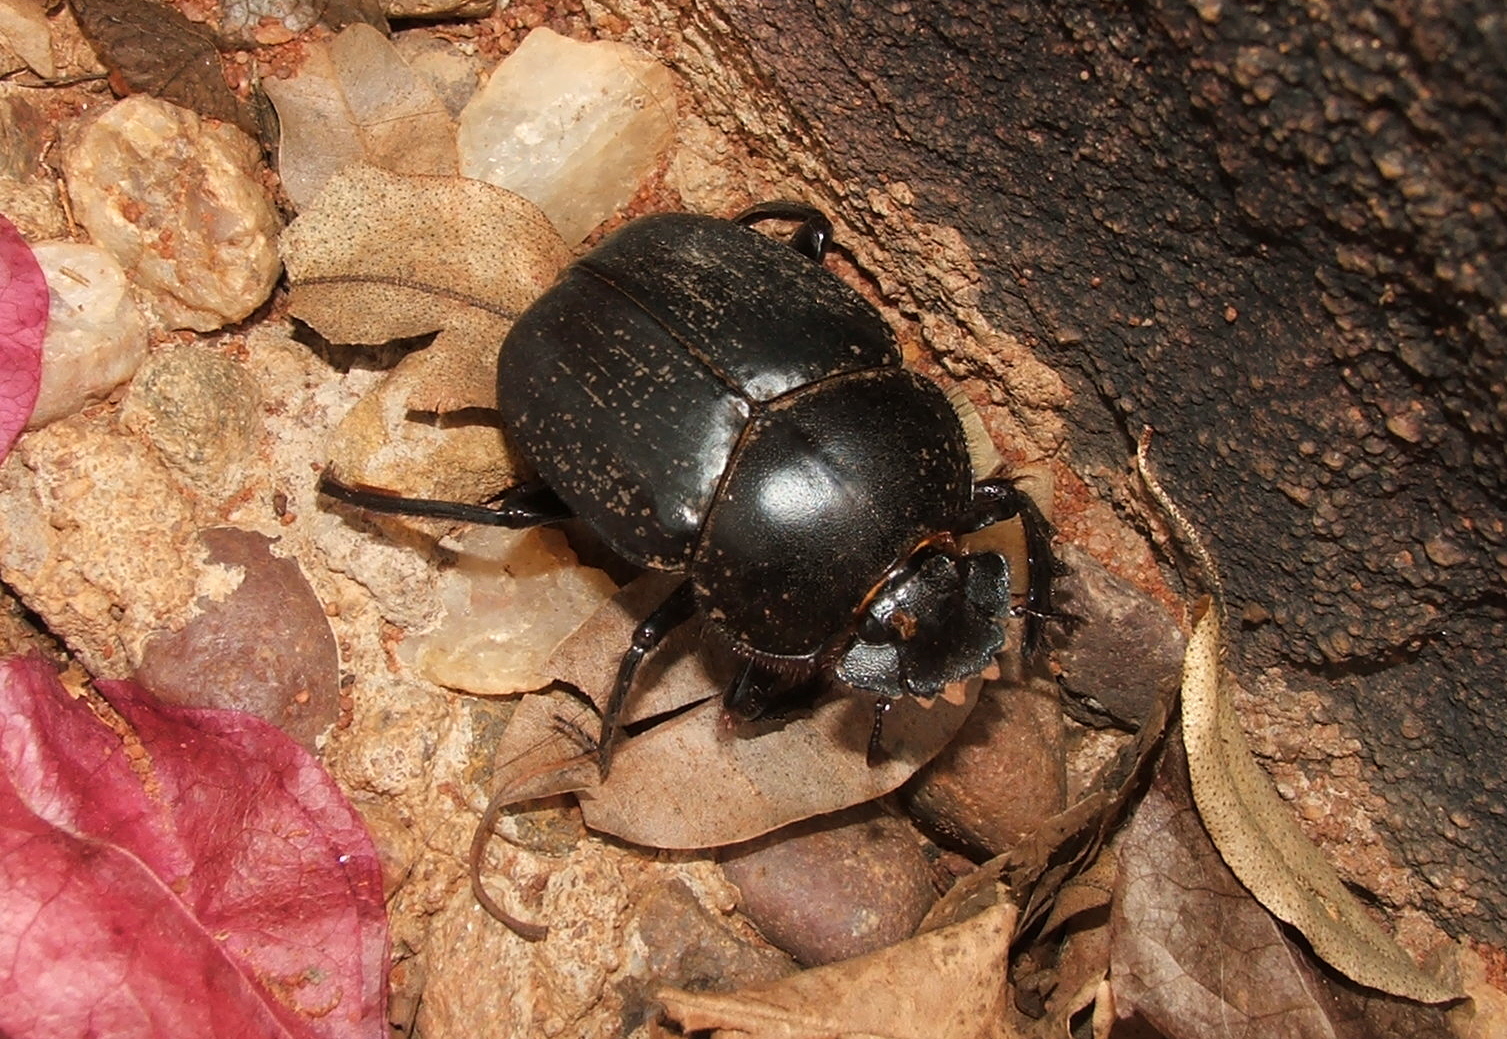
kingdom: Animalia
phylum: Arthropoda
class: Insecta
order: Coleoptera
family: Scarabaeidae
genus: Scarabaeus
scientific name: Scarabaeus zambesianus
